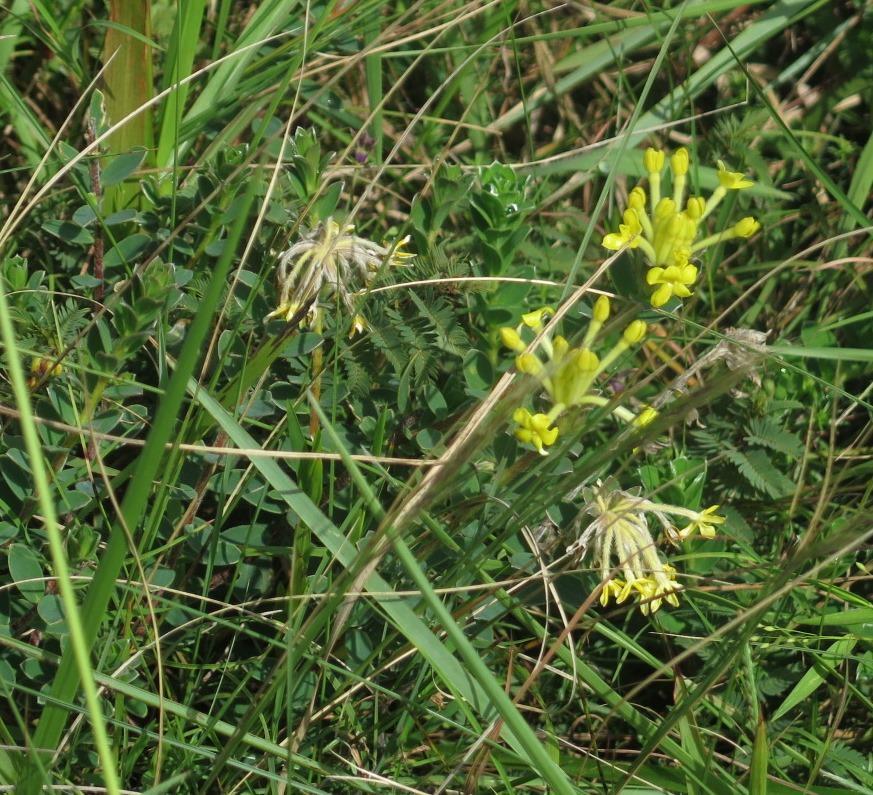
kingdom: Plantae
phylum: Tracheophyta
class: Magnoliopsida
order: Malvales
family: Thymelaeaceae
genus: Gnidia
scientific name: Gnidia anthylloides
